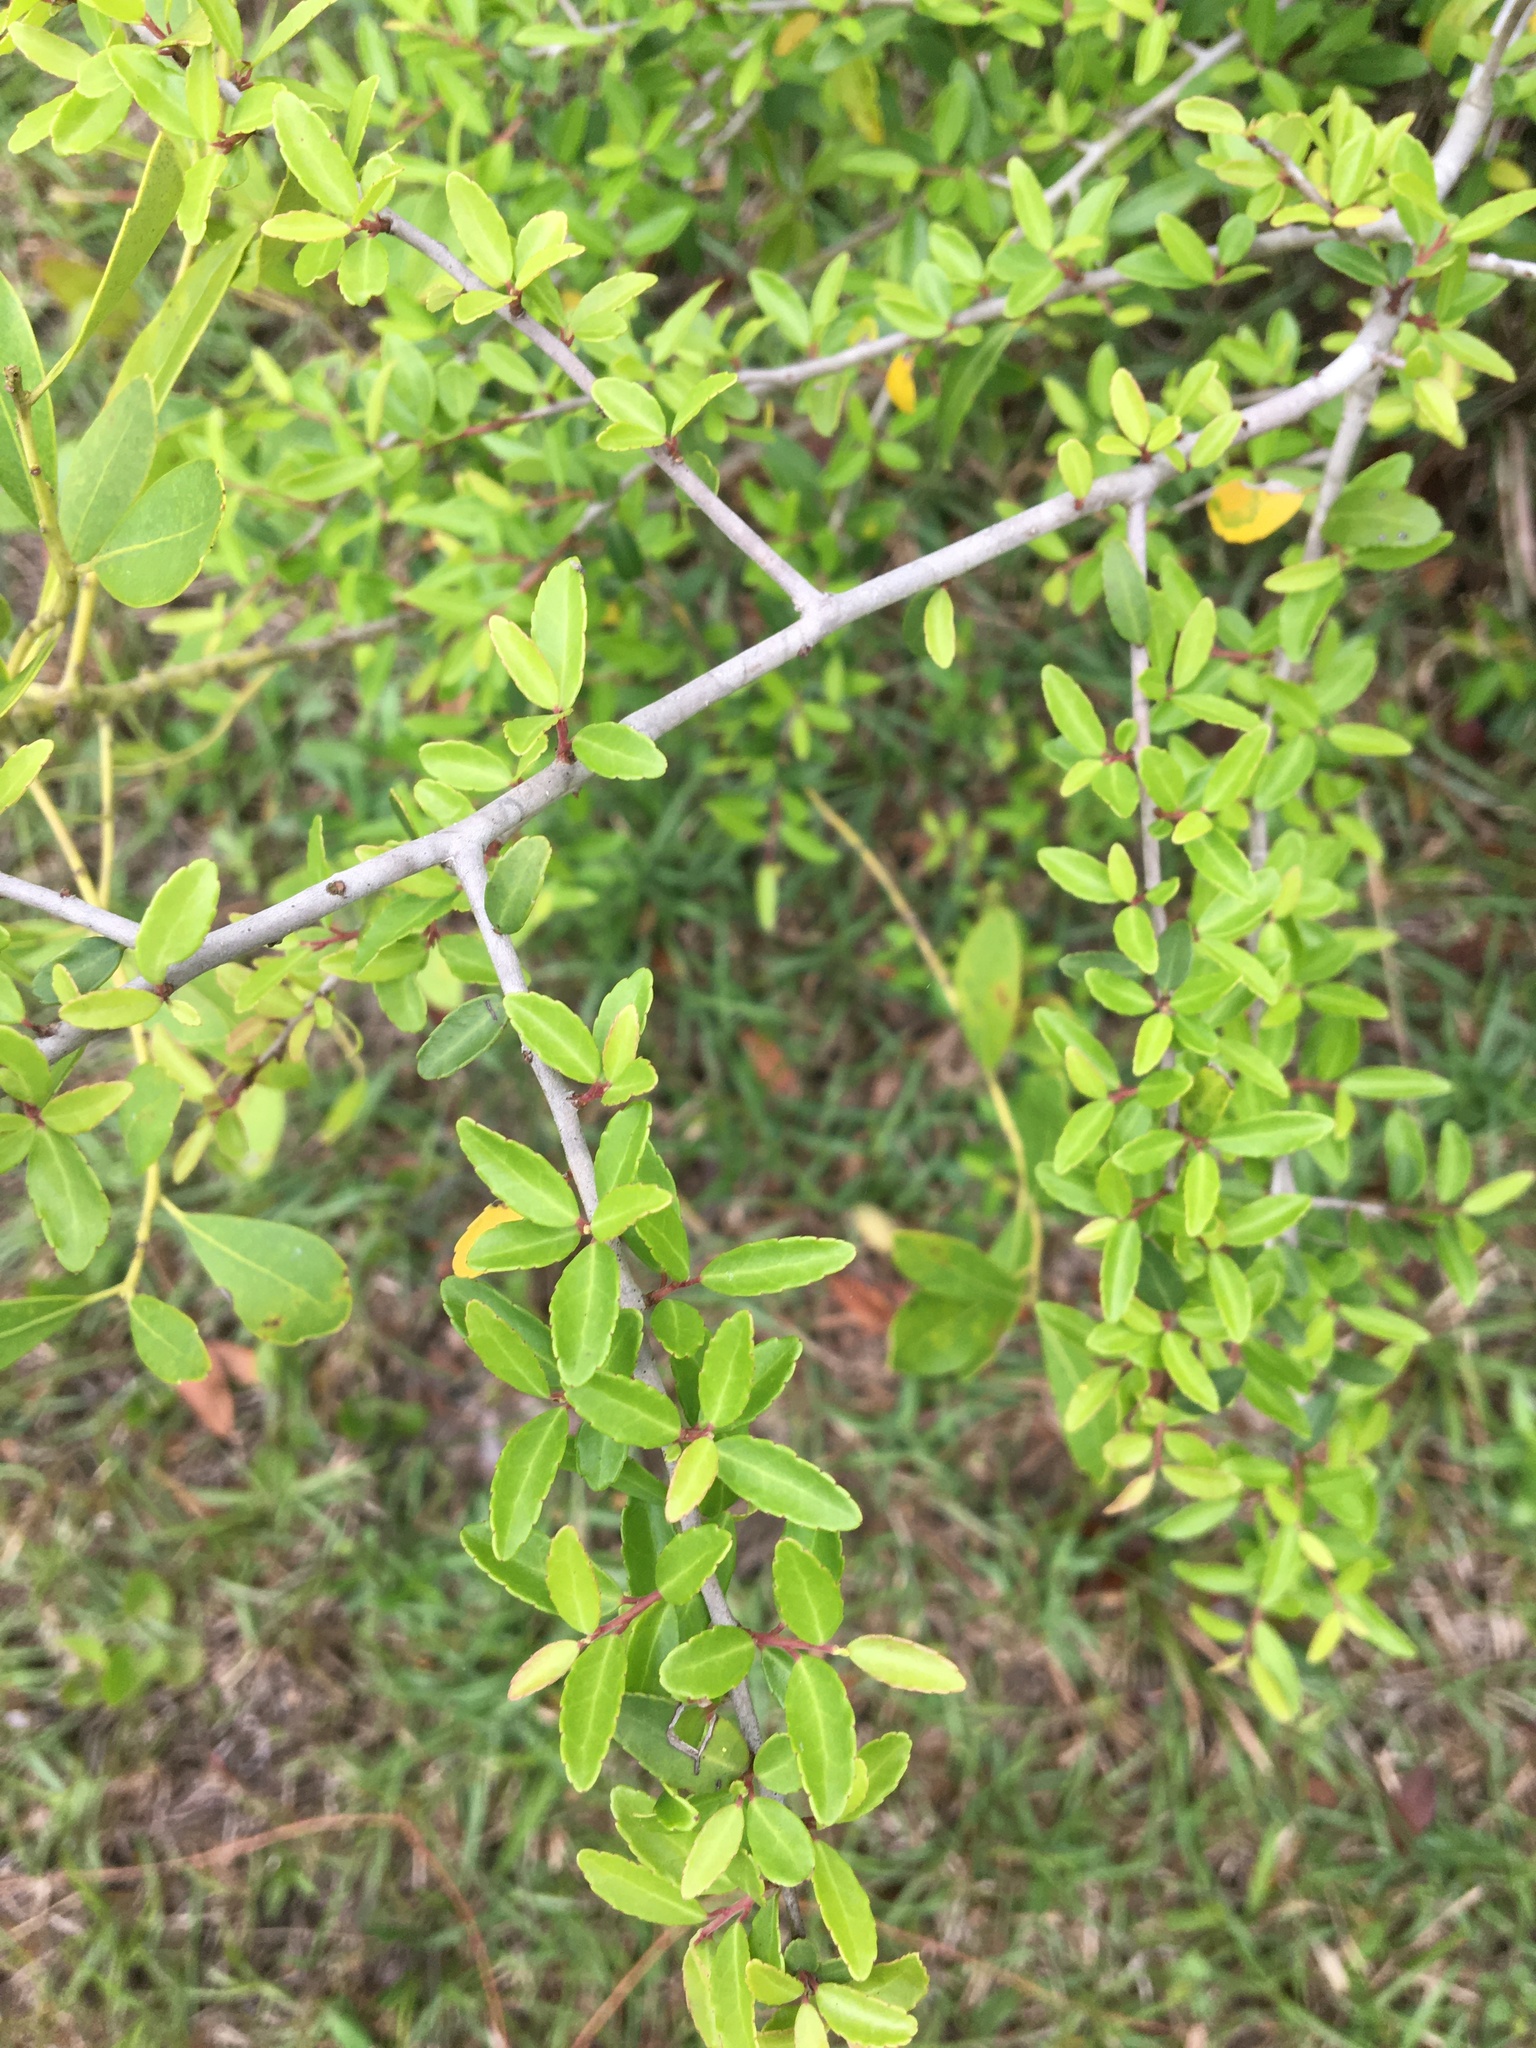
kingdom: Plantae
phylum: Tracheophyta
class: Magnoliopsida
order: Aquifoliales
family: Aquifoliaceae
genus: Ilex
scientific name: Ilex vomitoria
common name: Yaupon holly
